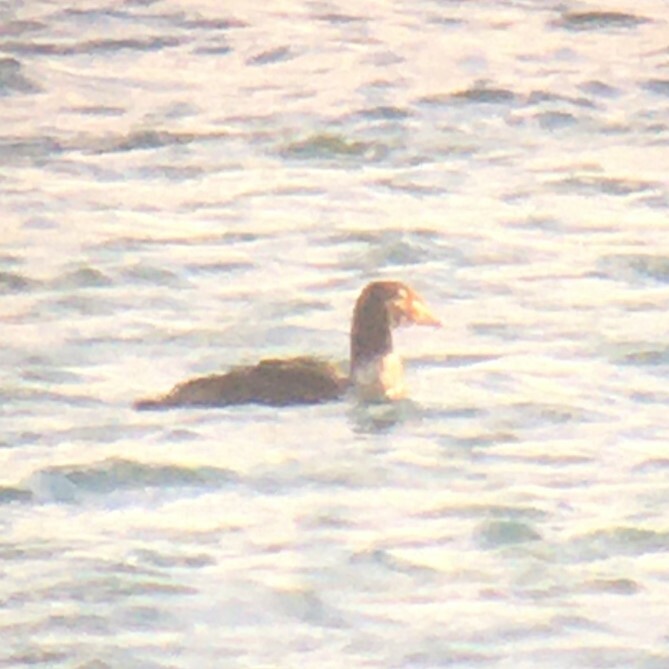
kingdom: Animalia
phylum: Chordata
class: Aves
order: Anseriformes
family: Anatidae
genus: Somateria
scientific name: Somateria spectabilis
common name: King eider
